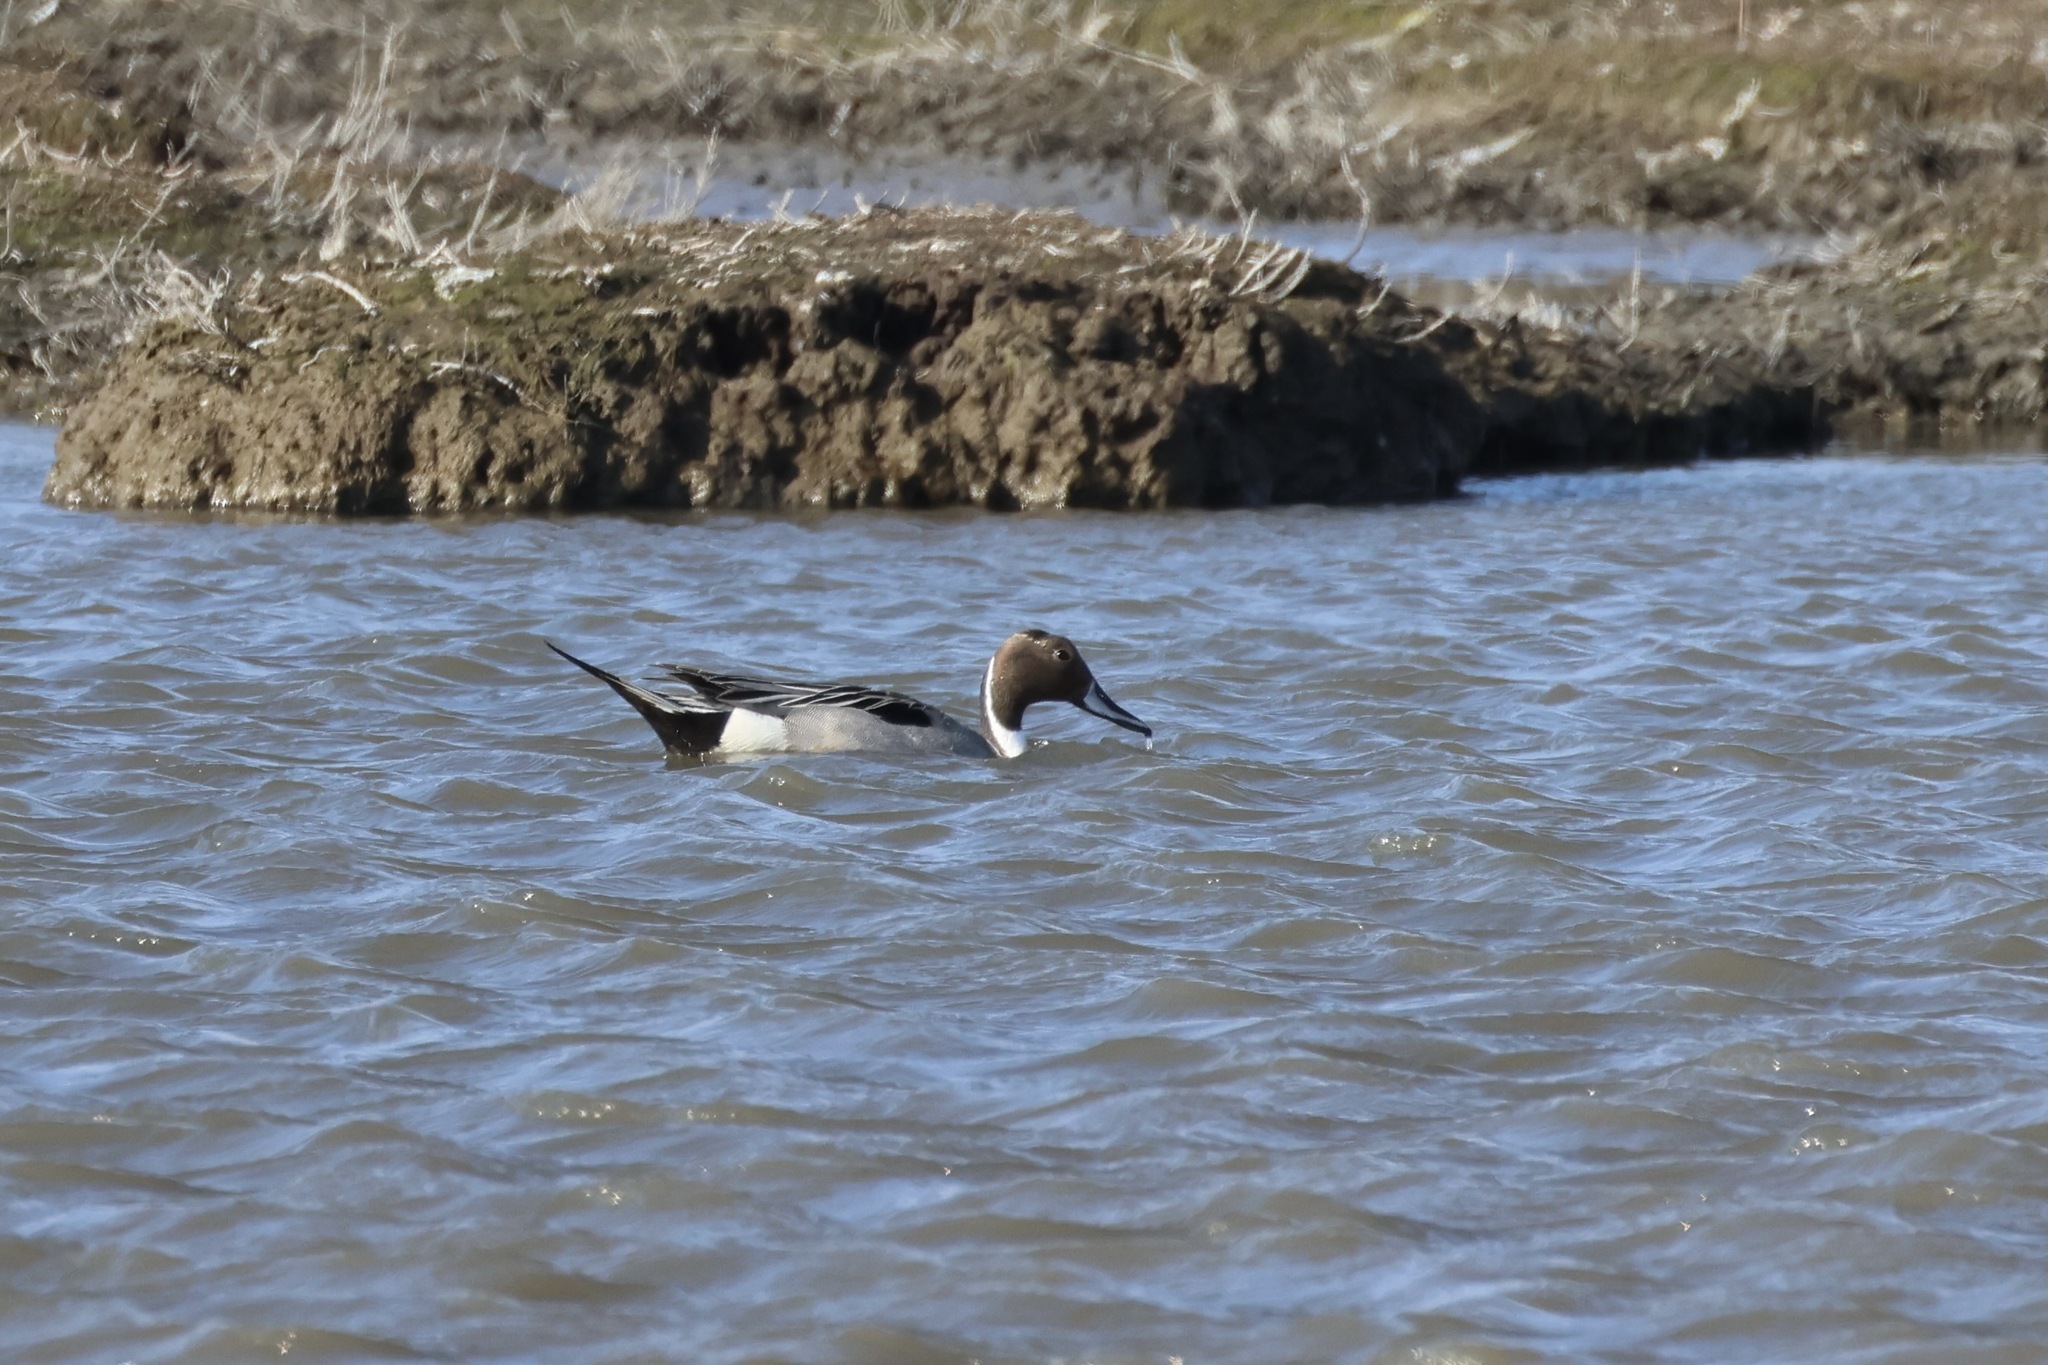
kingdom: Animalia
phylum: Chordata
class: Aves
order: Anseriformes
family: Anatidae
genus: Anas
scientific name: Anas acuta
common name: Northern pintail
